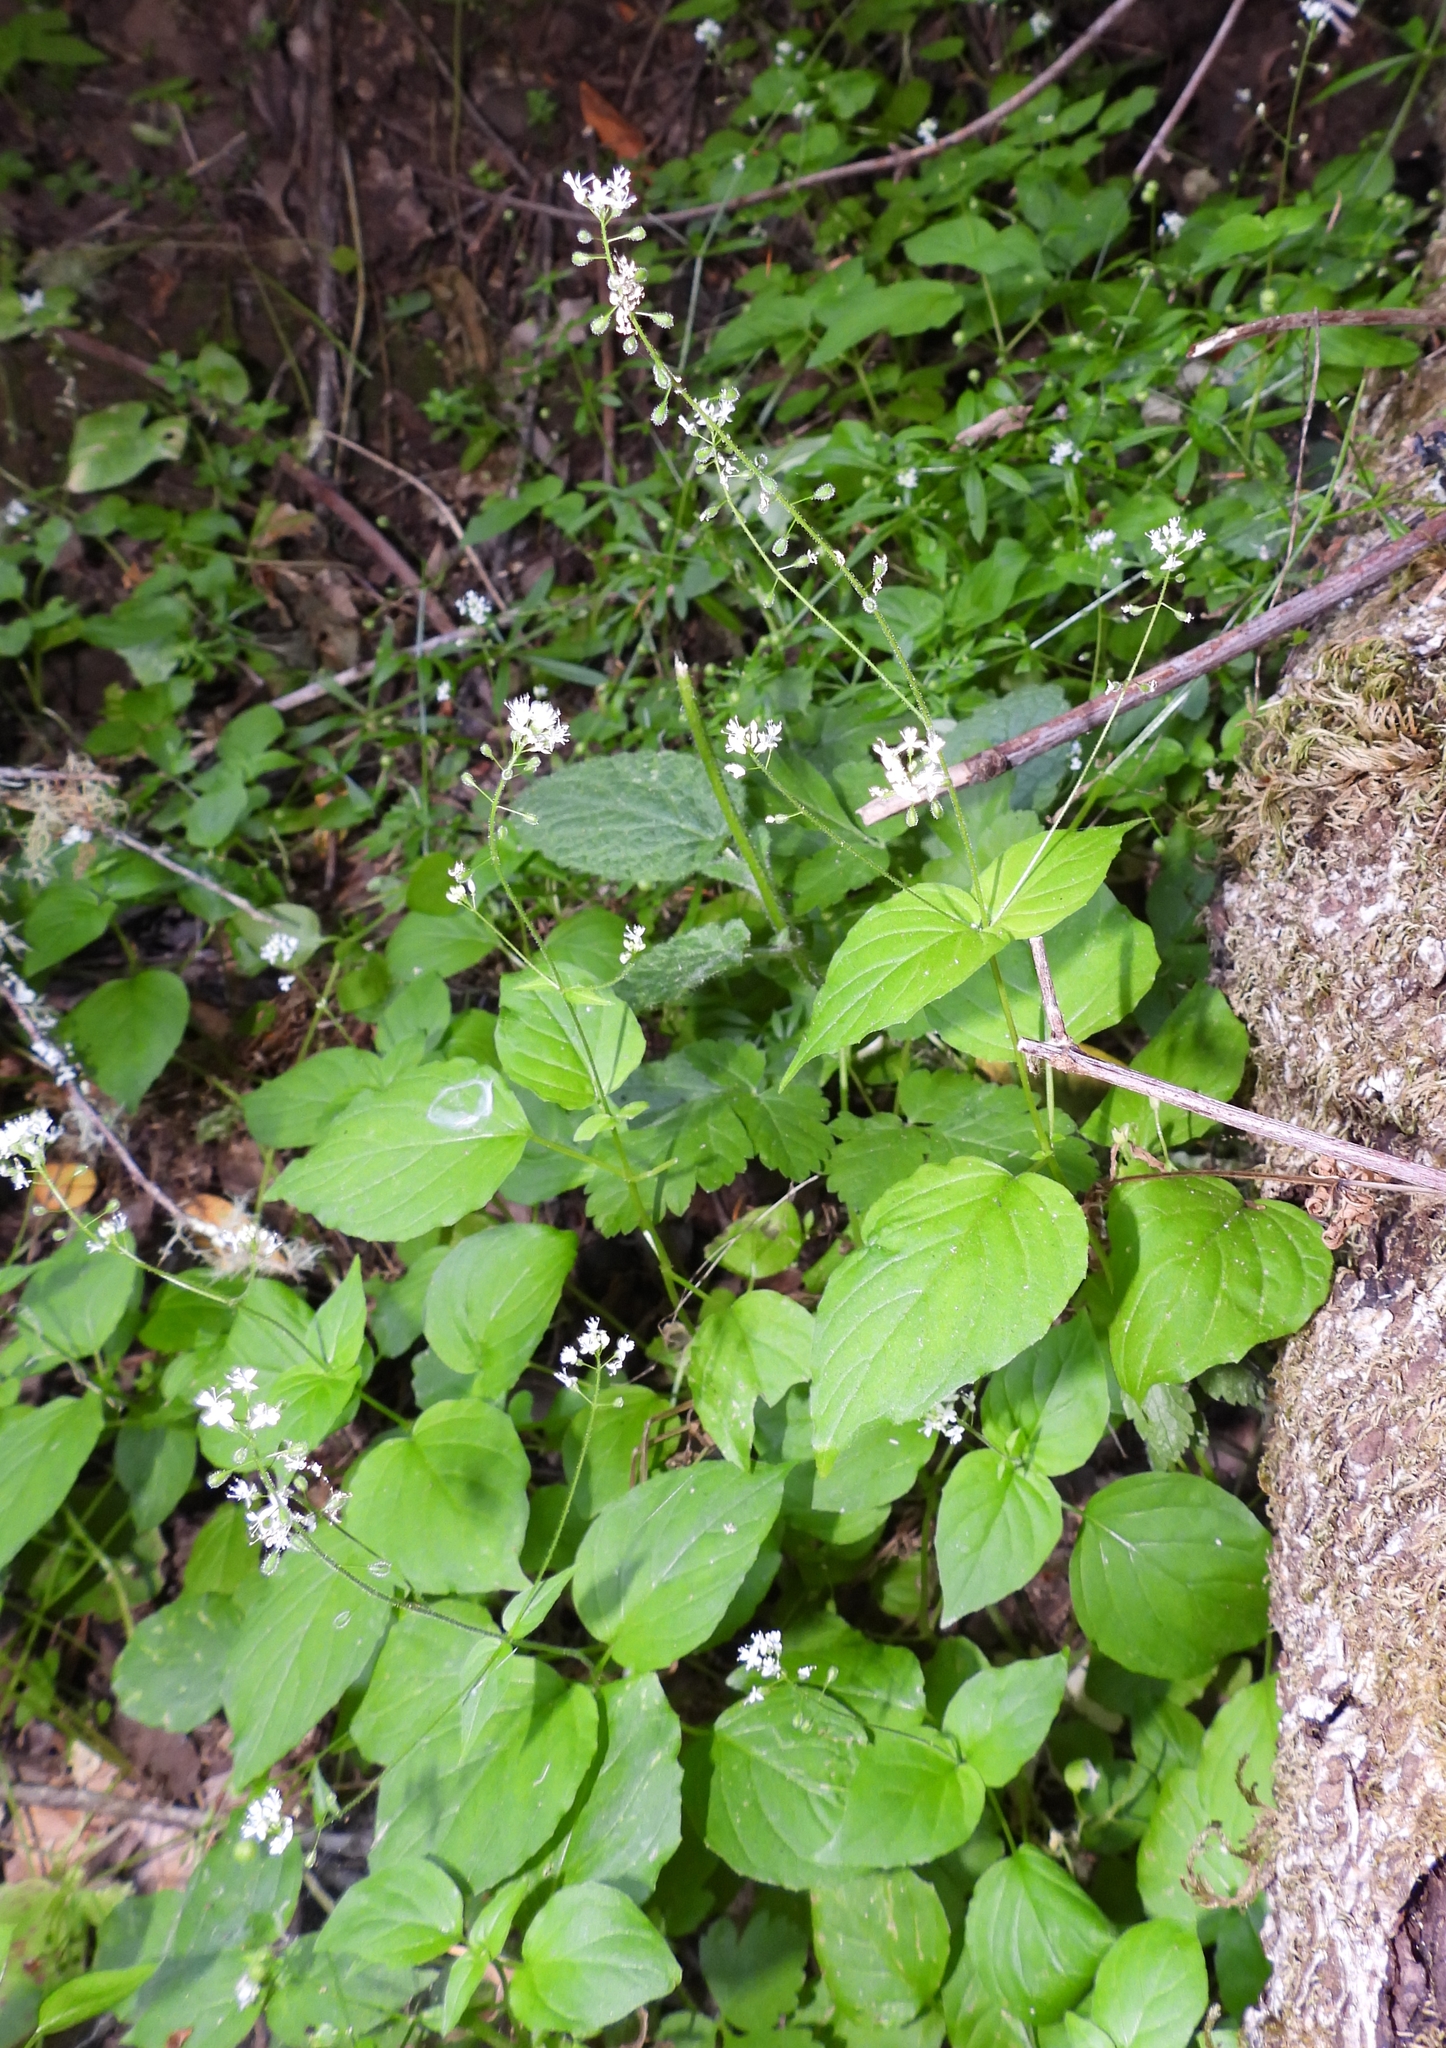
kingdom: Plantae
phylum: Tracheophyta
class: Magnoliopsida
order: Myrtales
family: Onagraceae
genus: Circaea
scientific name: Circaea alpina
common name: Alpine enchanter's-nightshade
